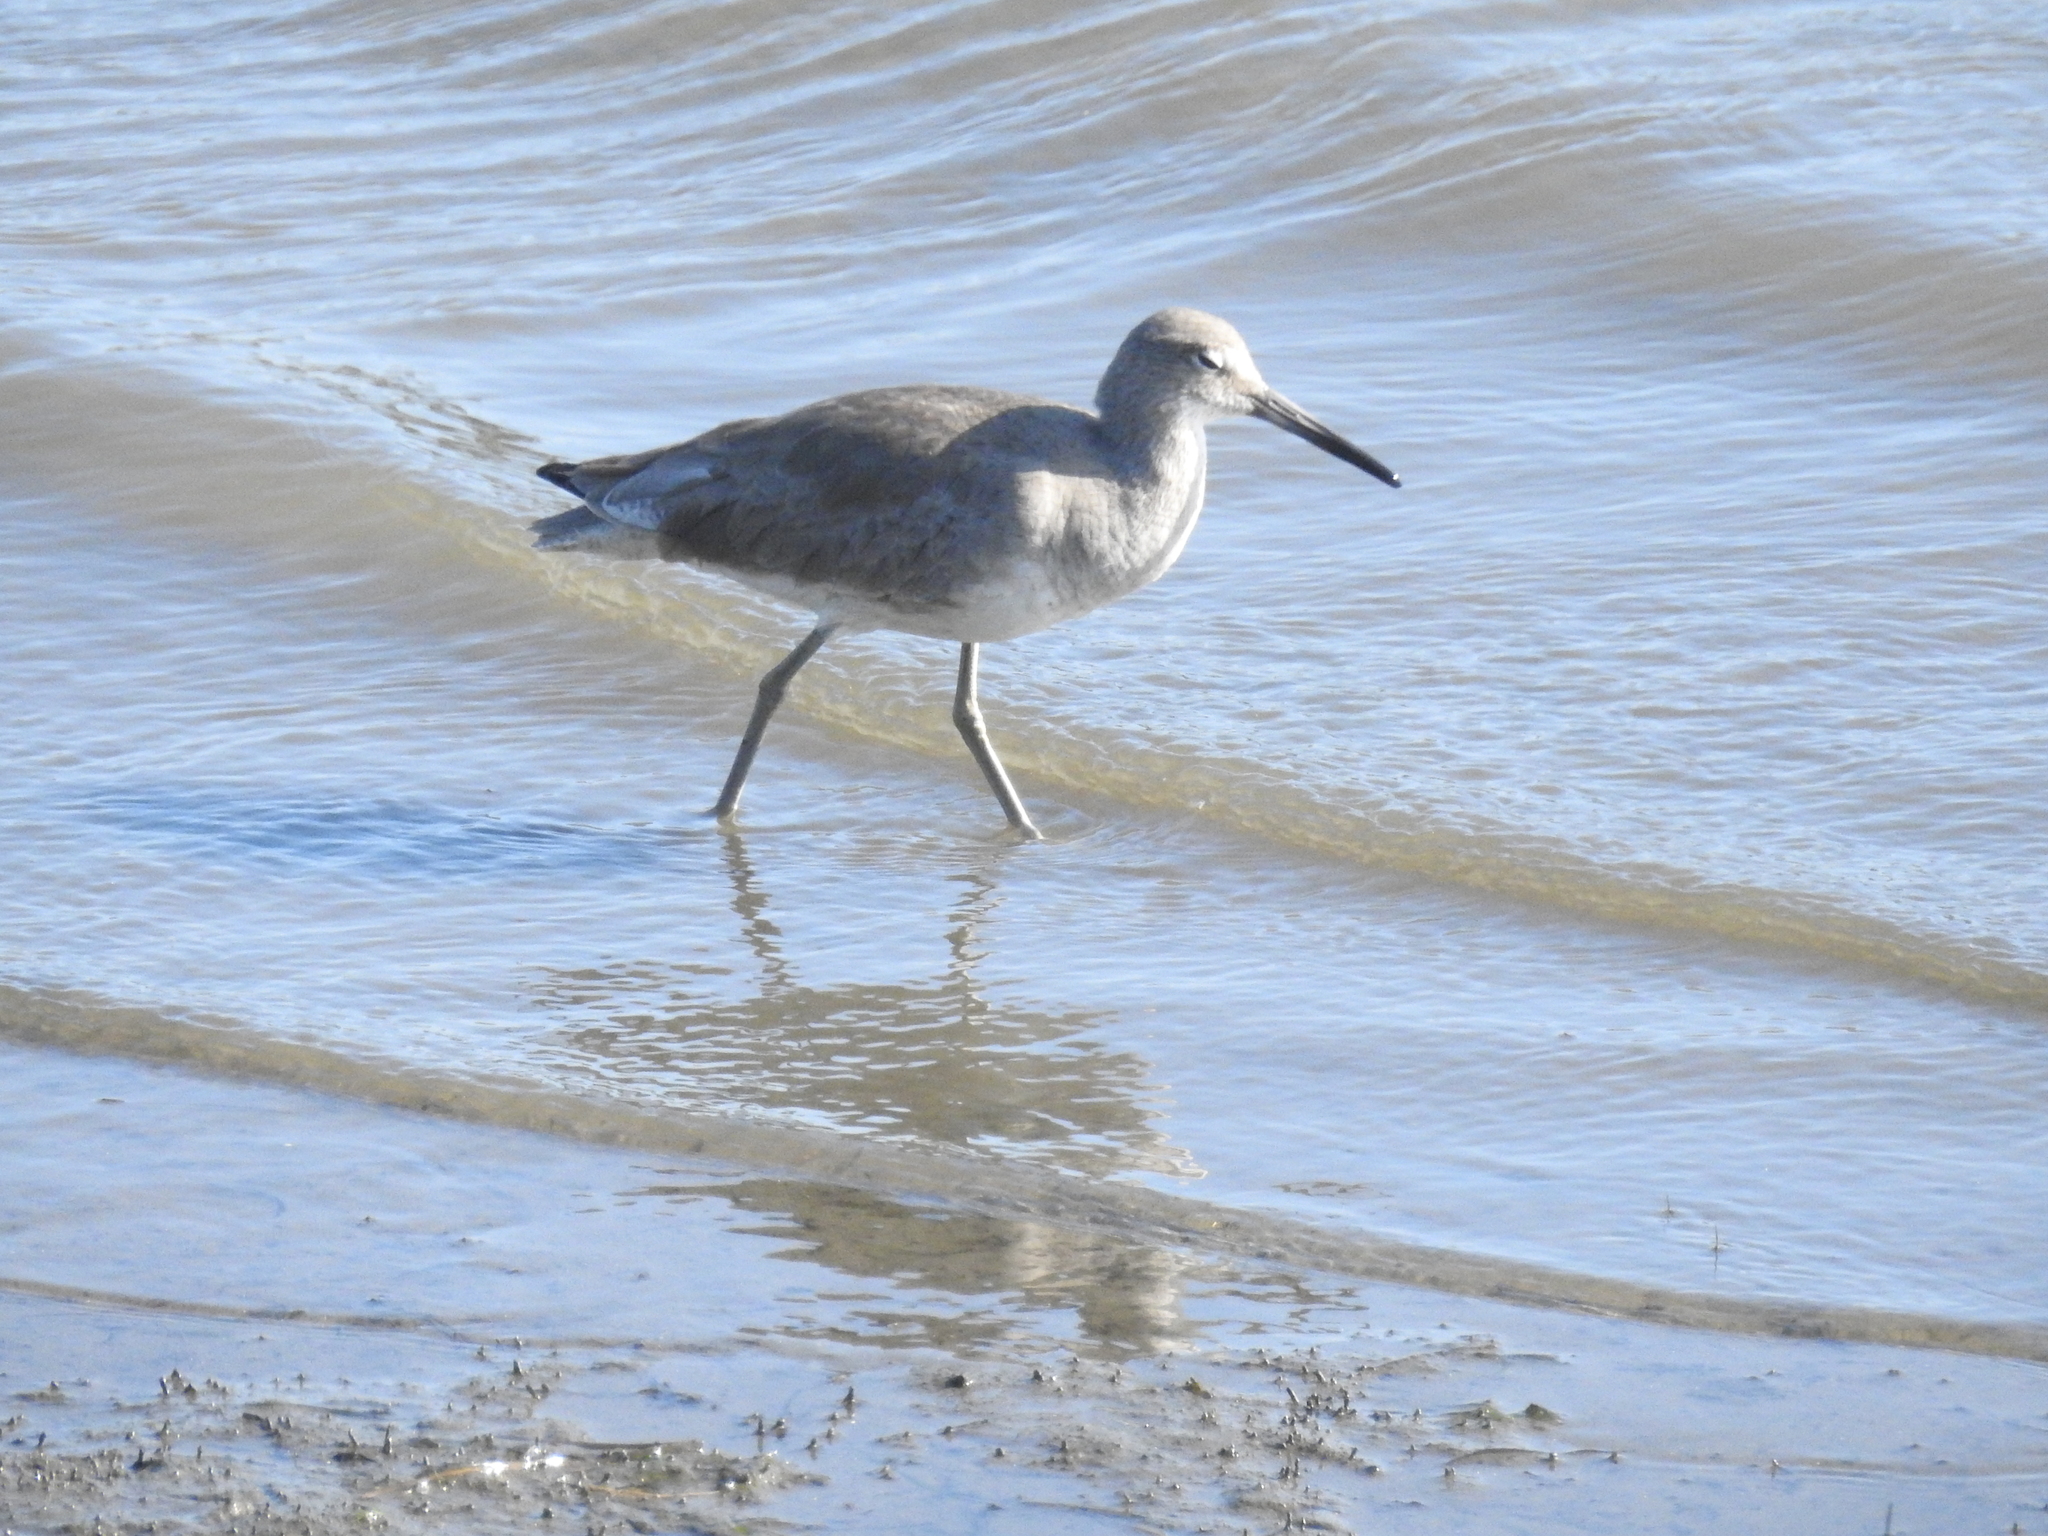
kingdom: Animalia
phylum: Chordata
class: Aves
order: Charadriiformes
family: Scolopacidae
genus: Tringa
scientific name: Tringa semipalmata
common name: Willet
